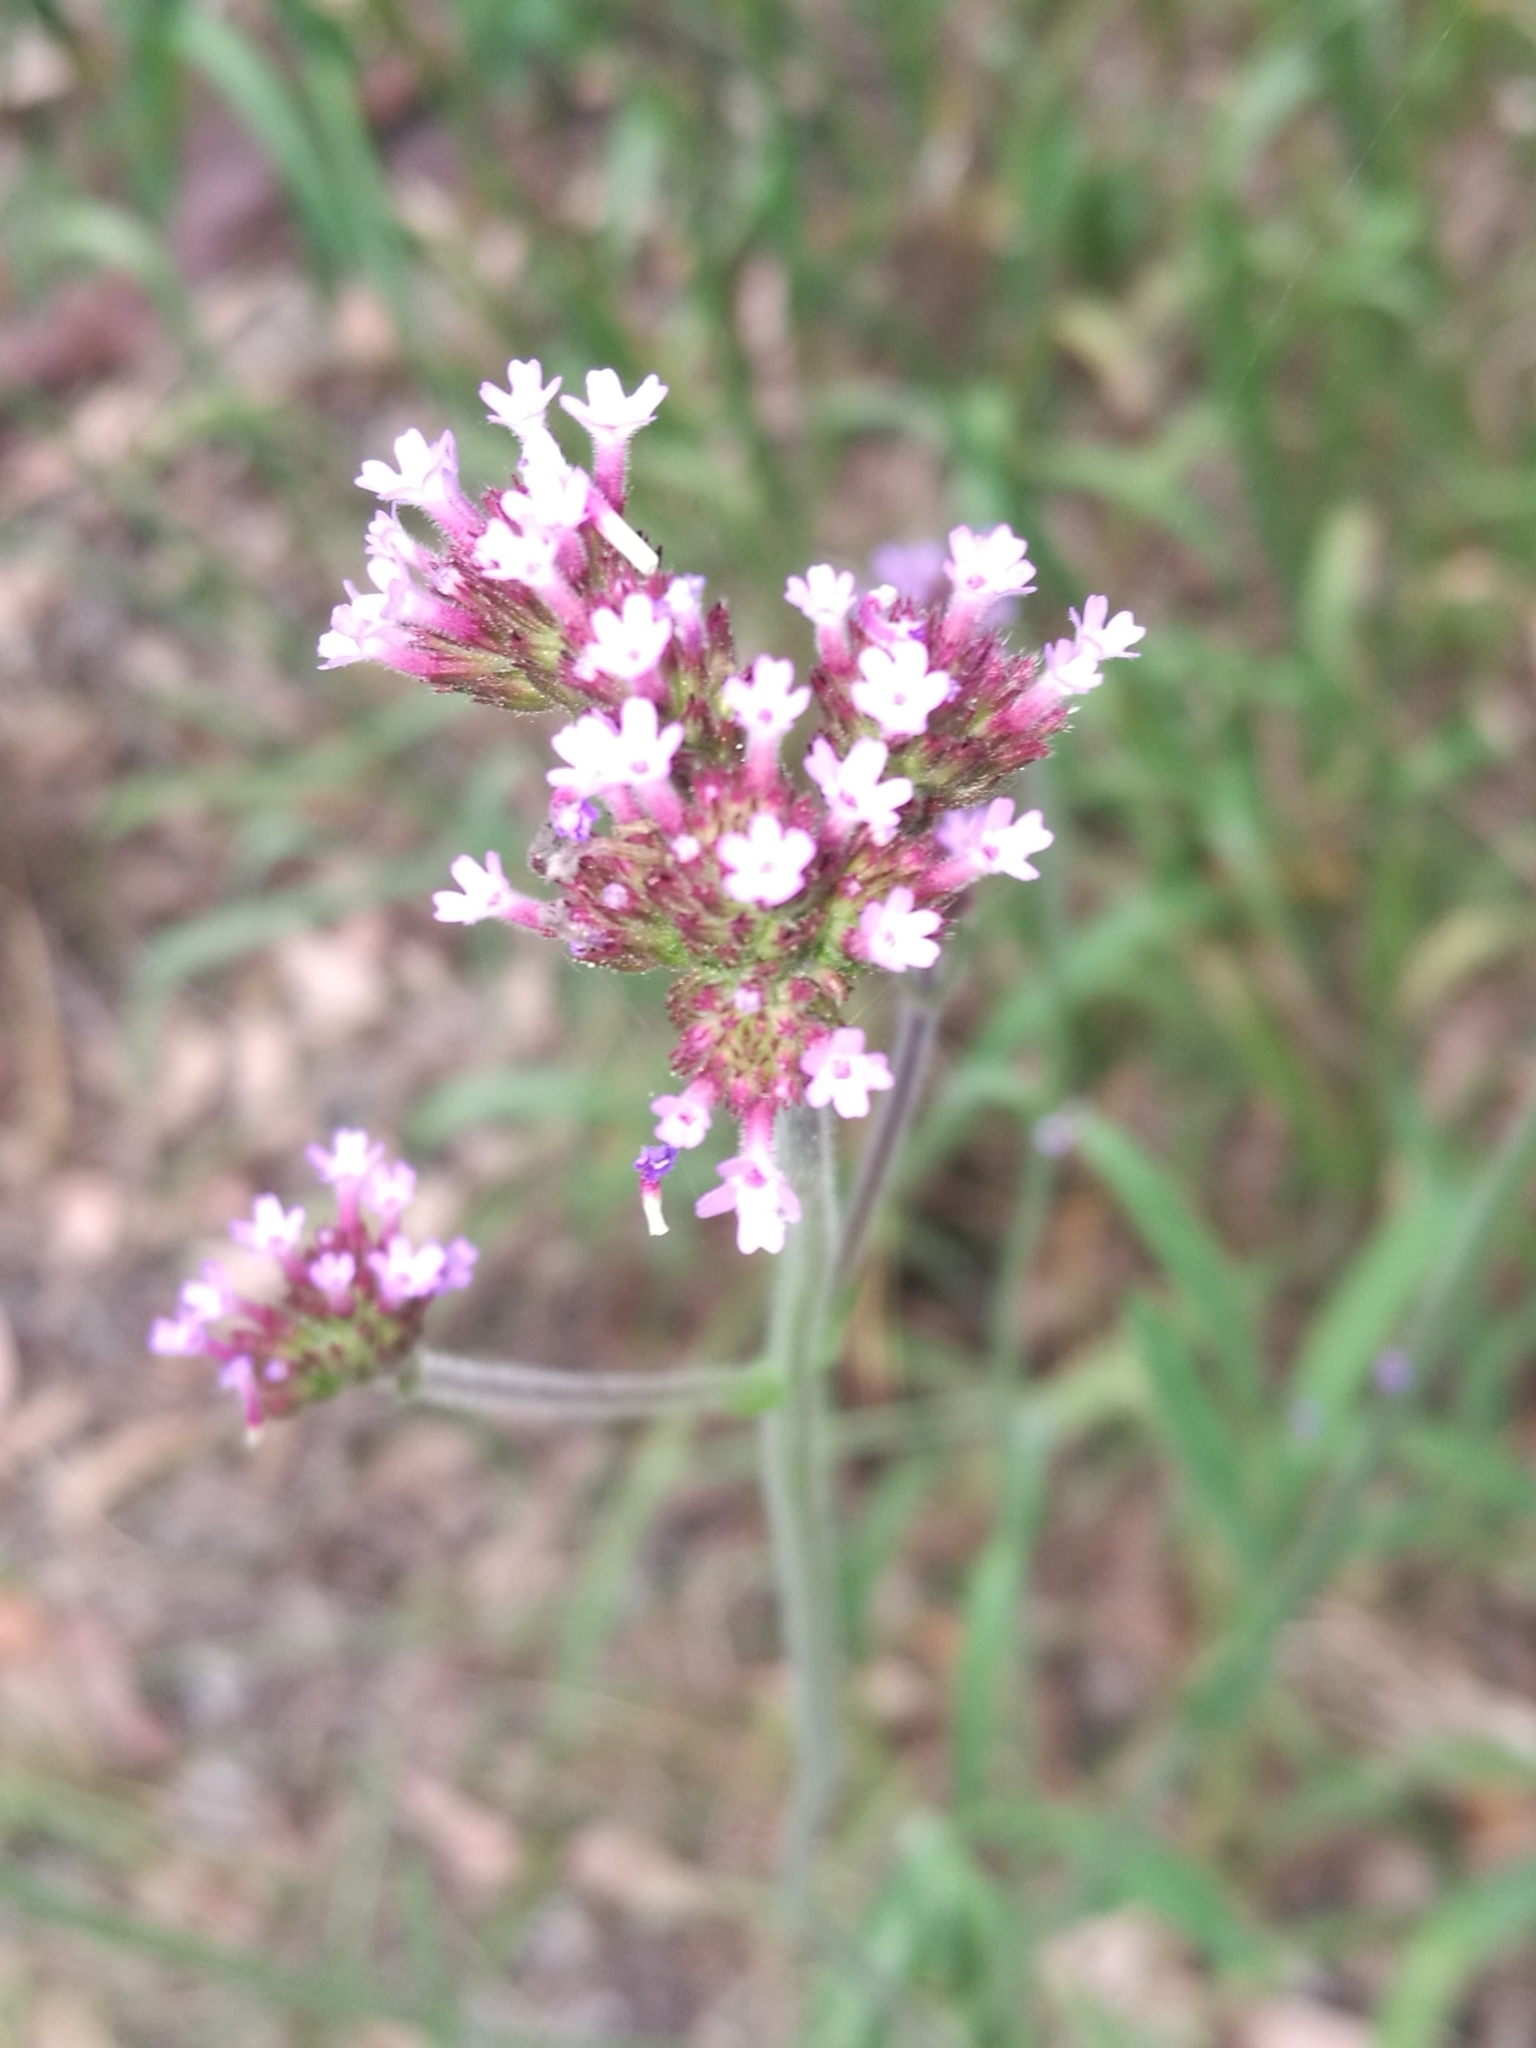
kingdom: Plantae
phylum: Tracheophyta
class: Magnoliopsida
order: Lamiales
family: Verbenaceae
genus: Verbena
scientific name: Verbena bonariensis
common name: Purpletop vervain
